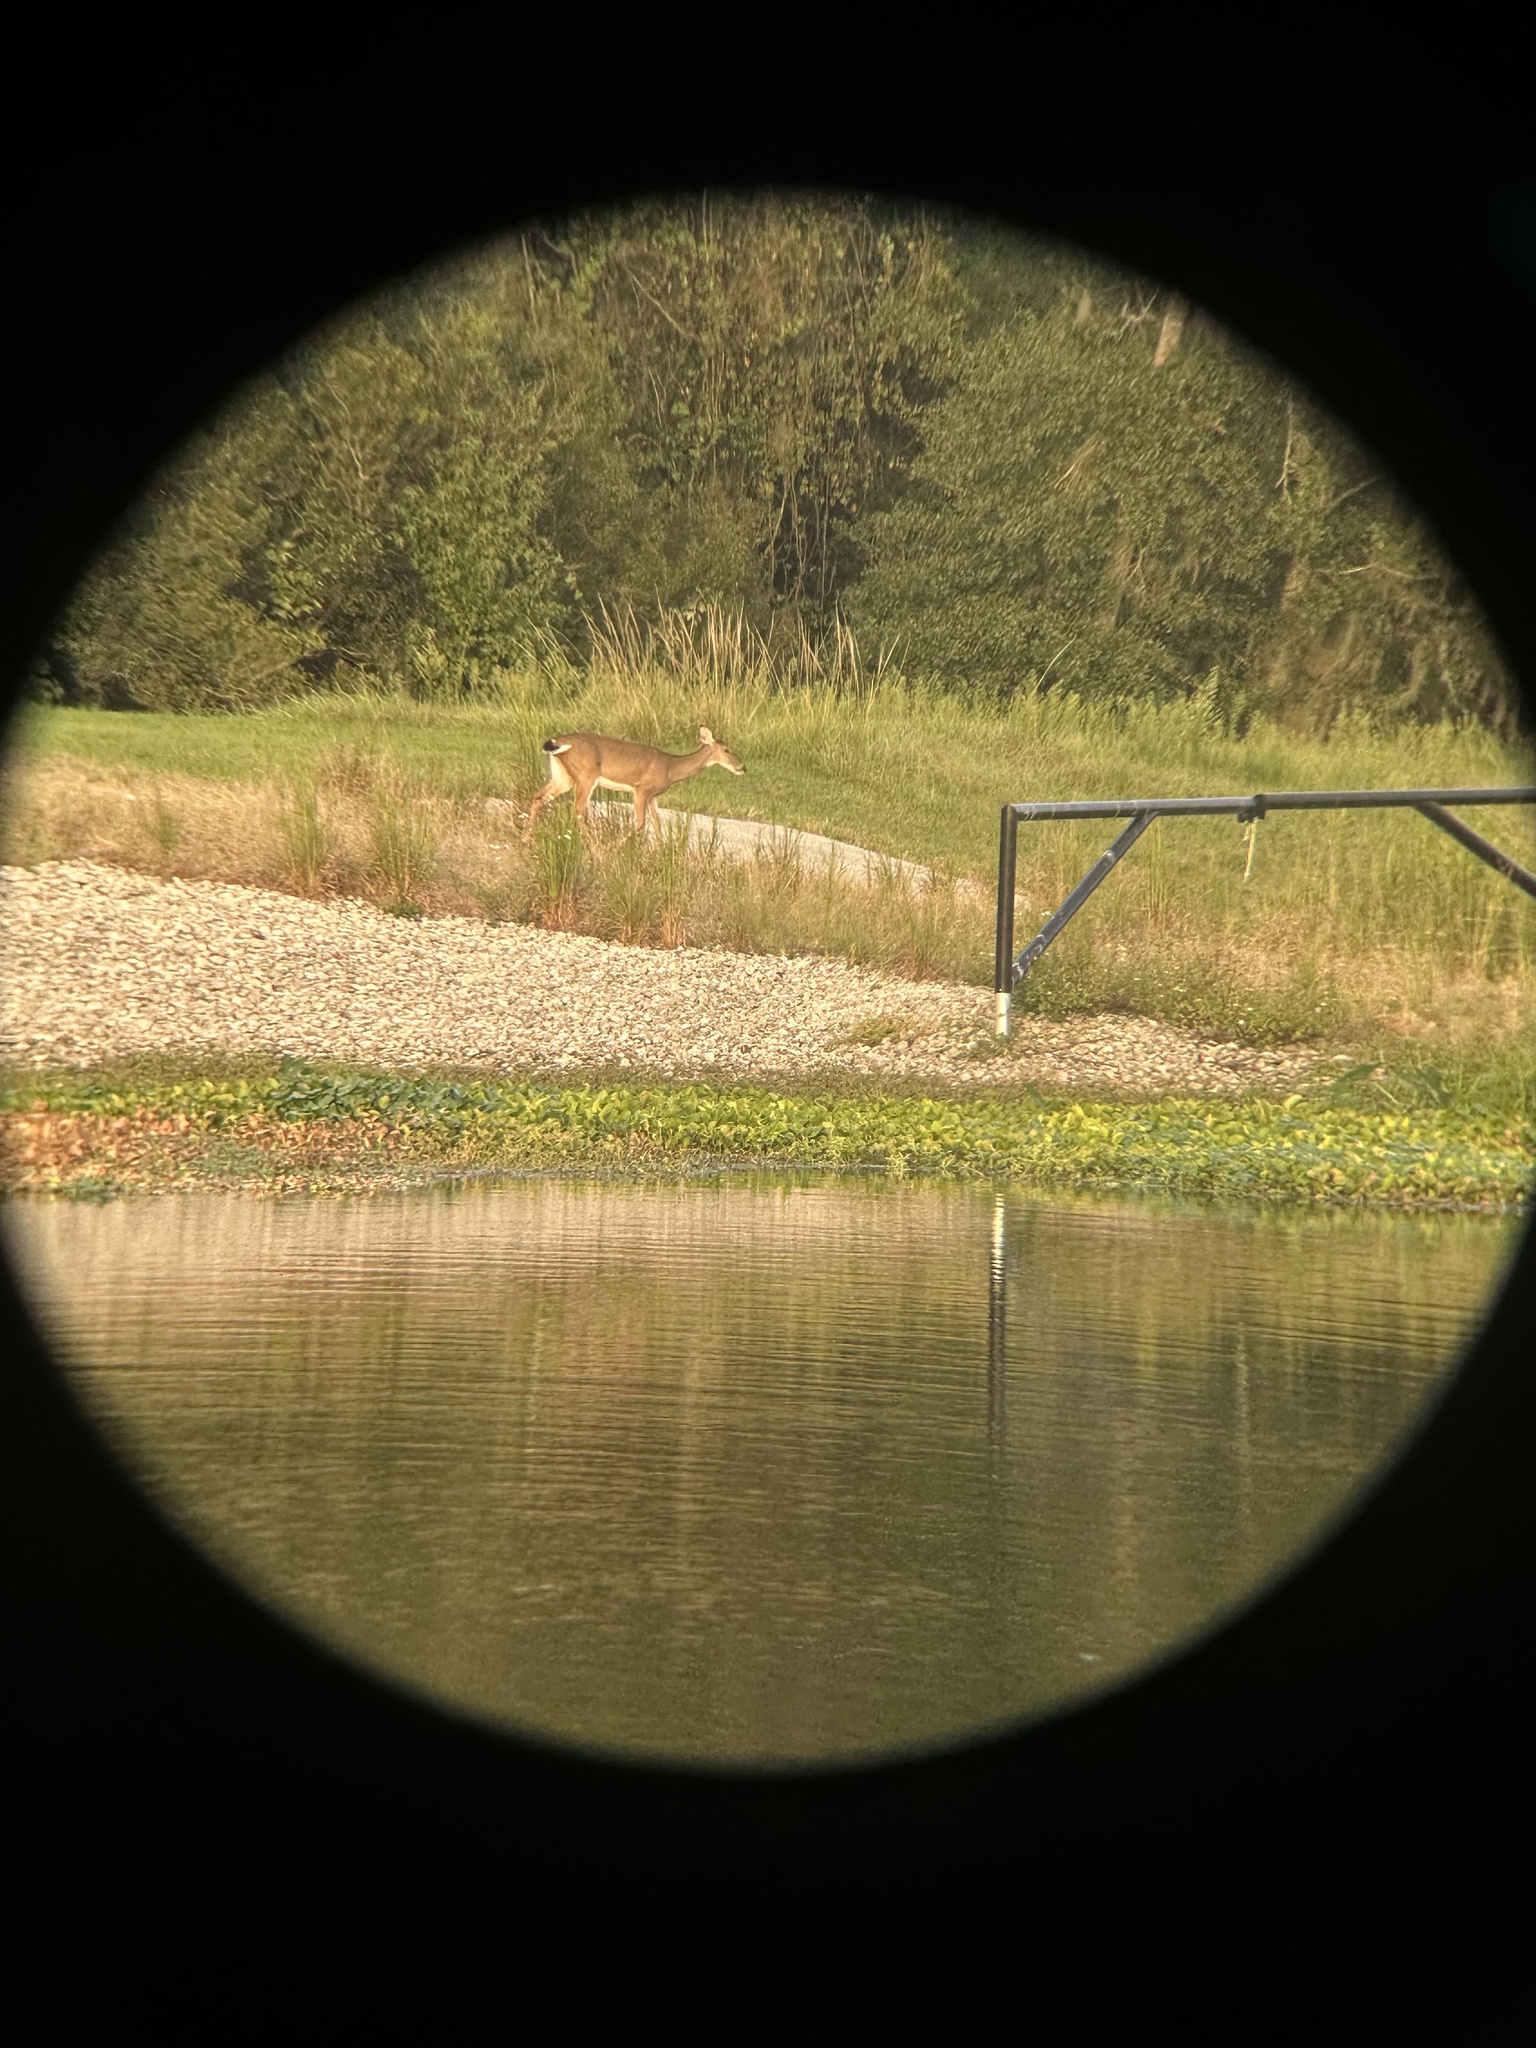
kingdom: Animalia
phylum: Chordata
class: Mammalia
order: Artiodactyla
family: Cervidae
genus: Odocoileus
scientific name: Odocoileus virginianus
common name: White-tailed deer
